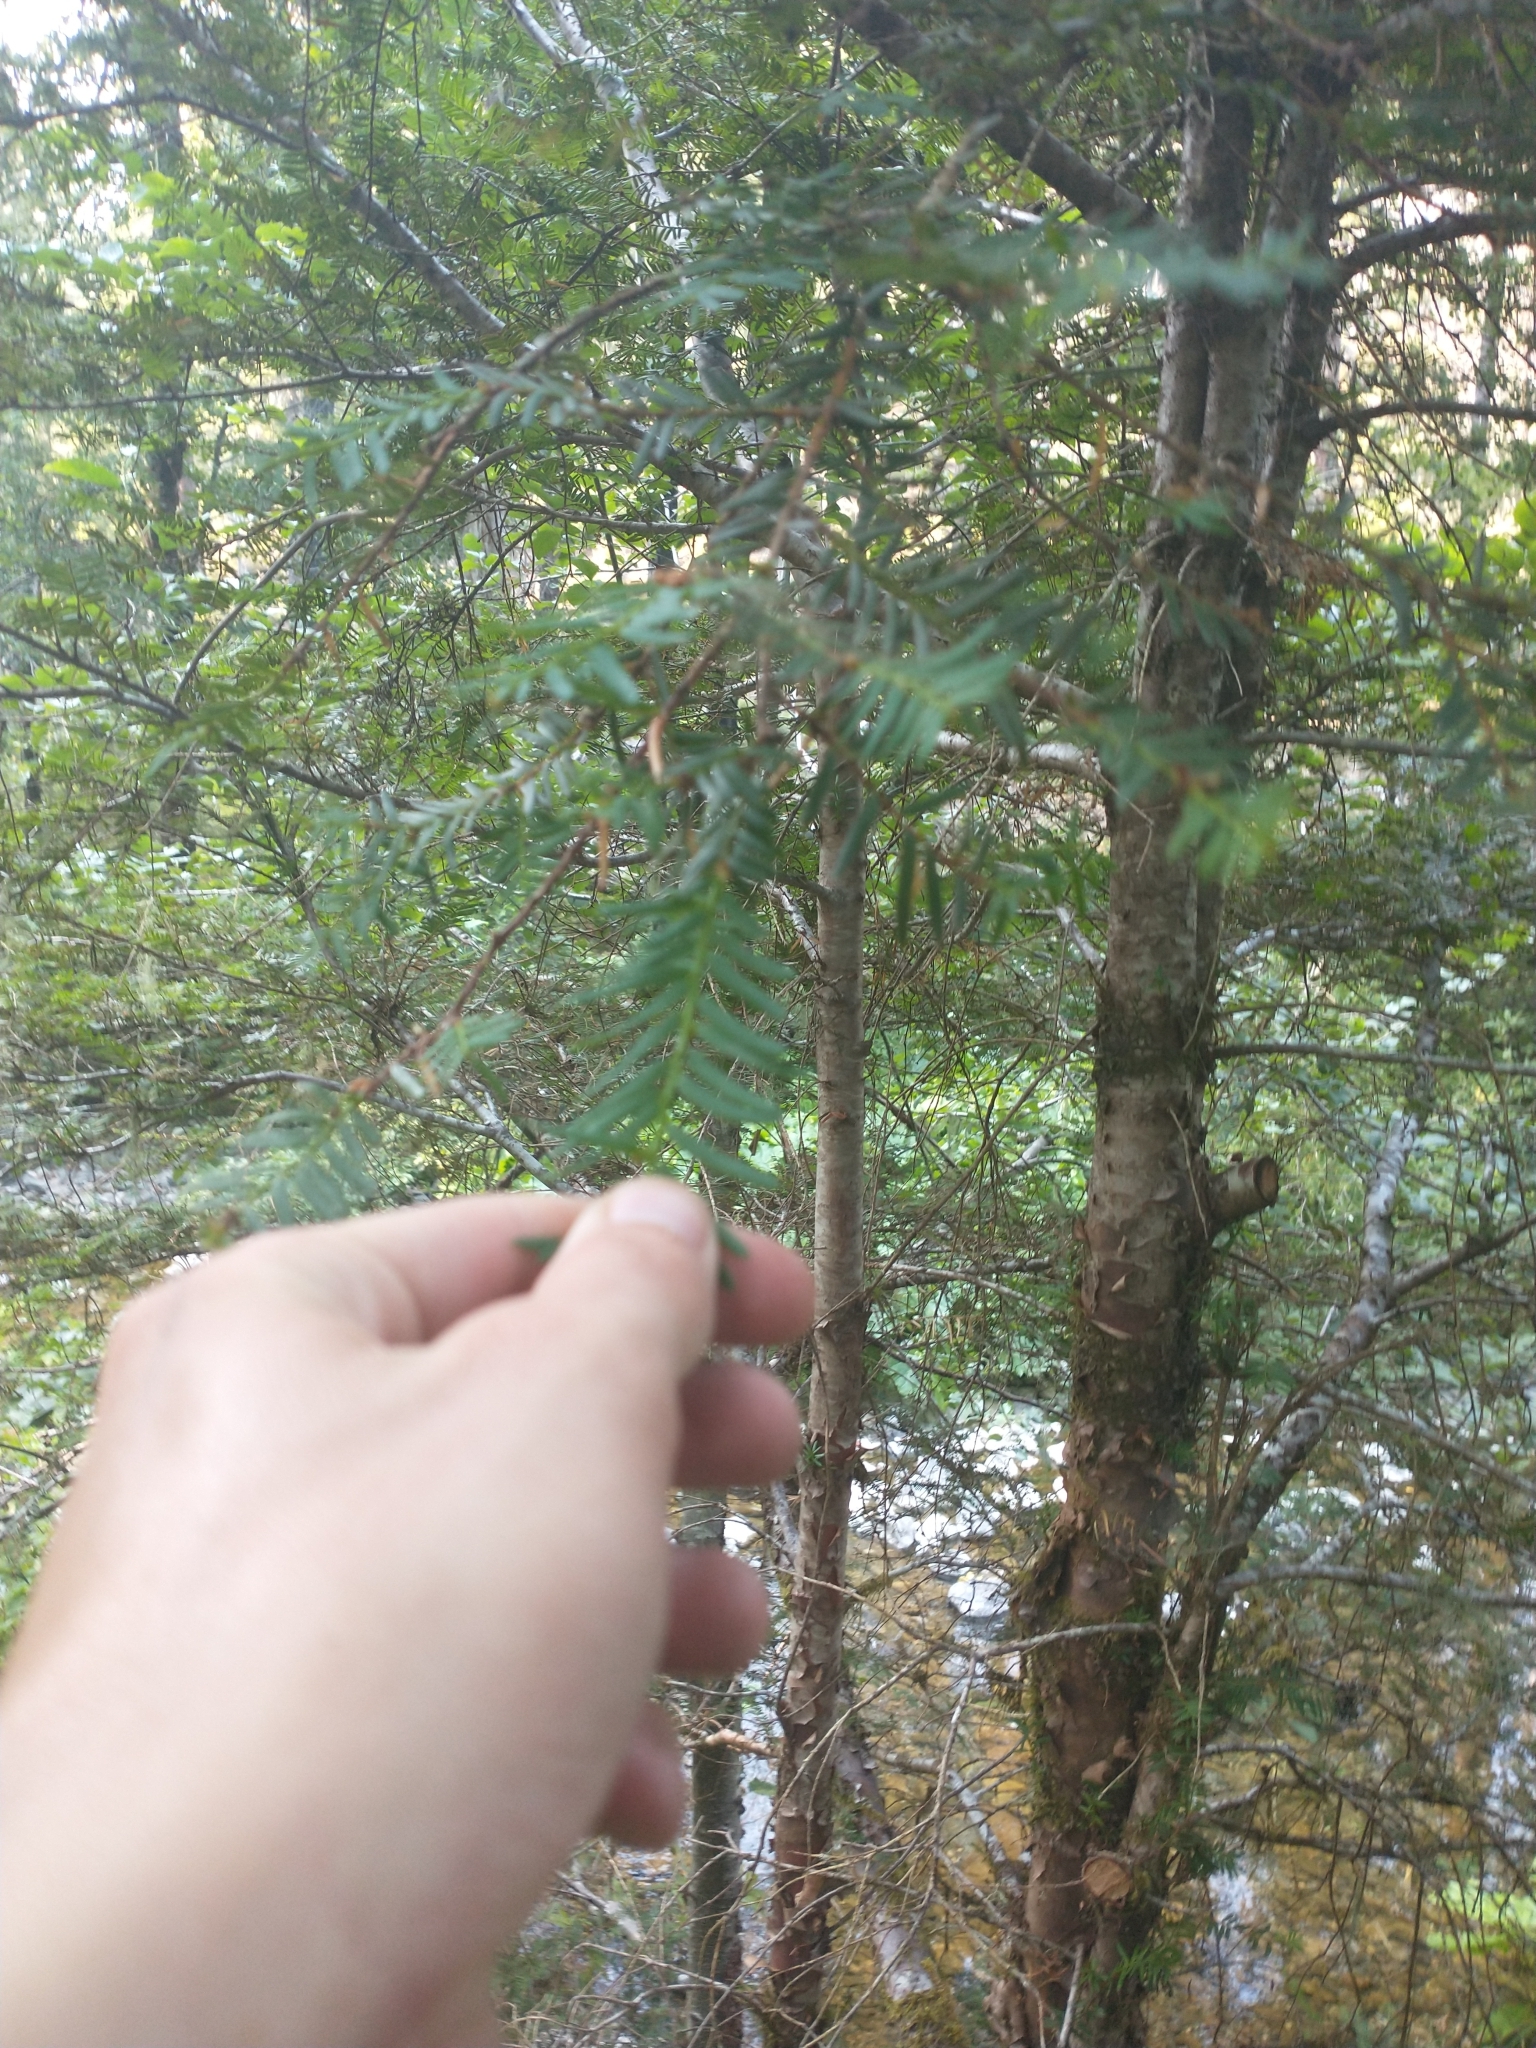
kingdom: Plantae
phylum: Tracheophyta
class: Pinopsida
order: Pinales
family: Taxaceae
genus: Taxus
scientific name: Taxus brevifolia
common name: Pacific yew
